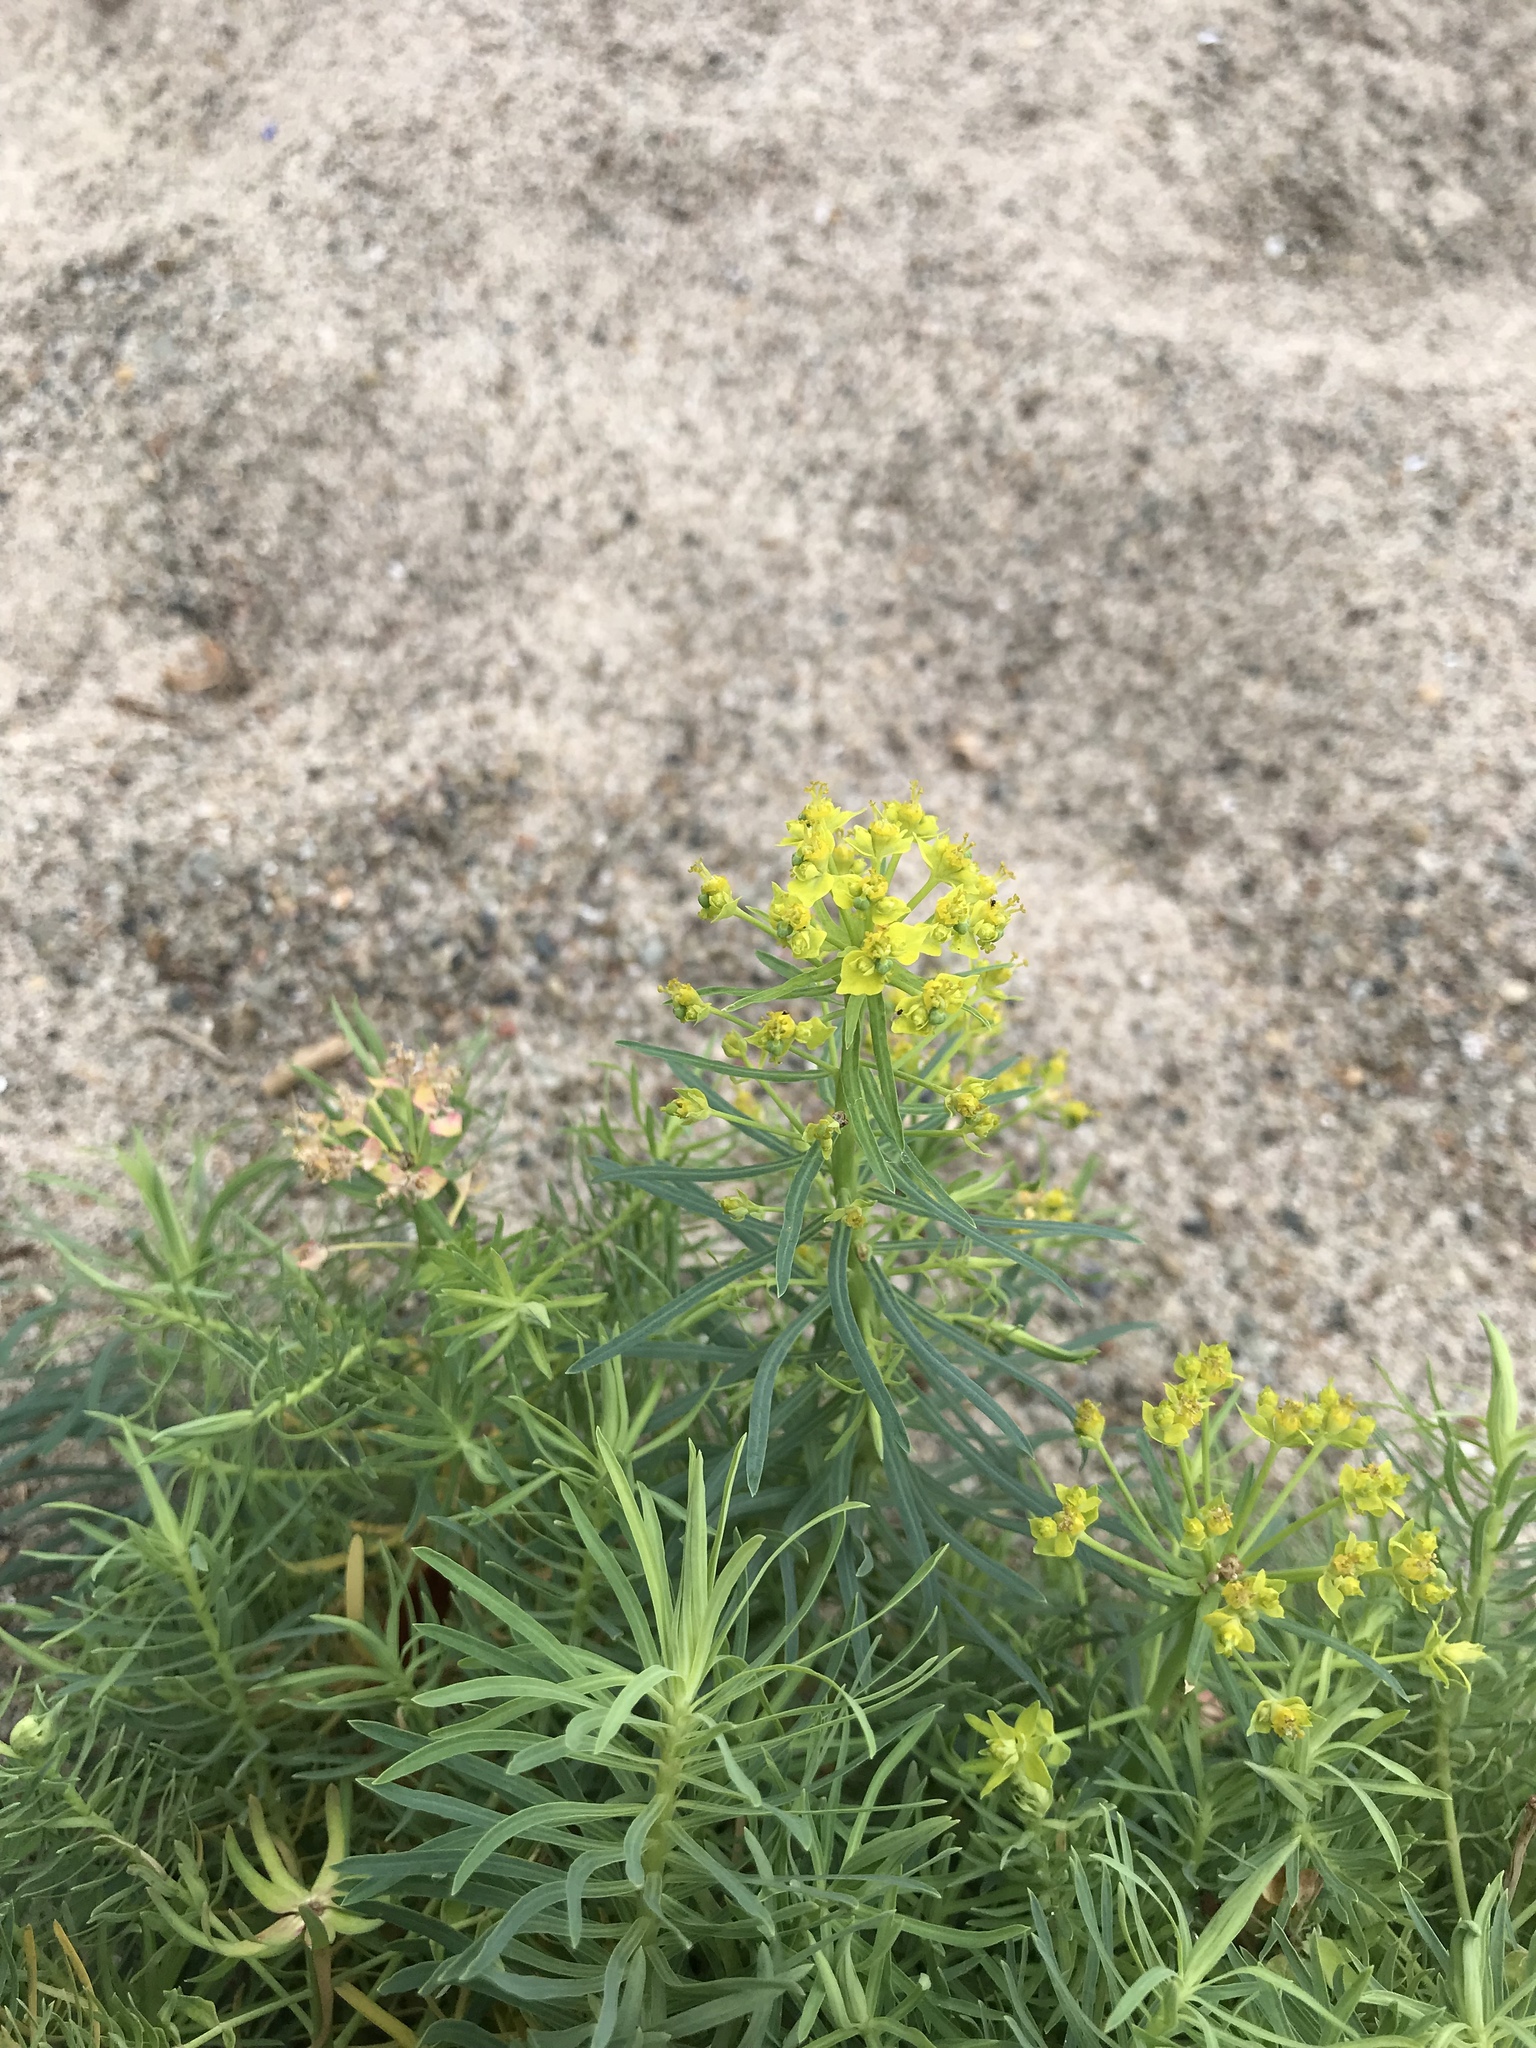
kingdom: Plantae
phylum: Tracheophyta
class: Magnoliopsida
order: Malpighiales
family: Euphorbiaceae
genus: Euphorbia
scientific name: Euphorbia cyparissias
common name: Cypress spurge
